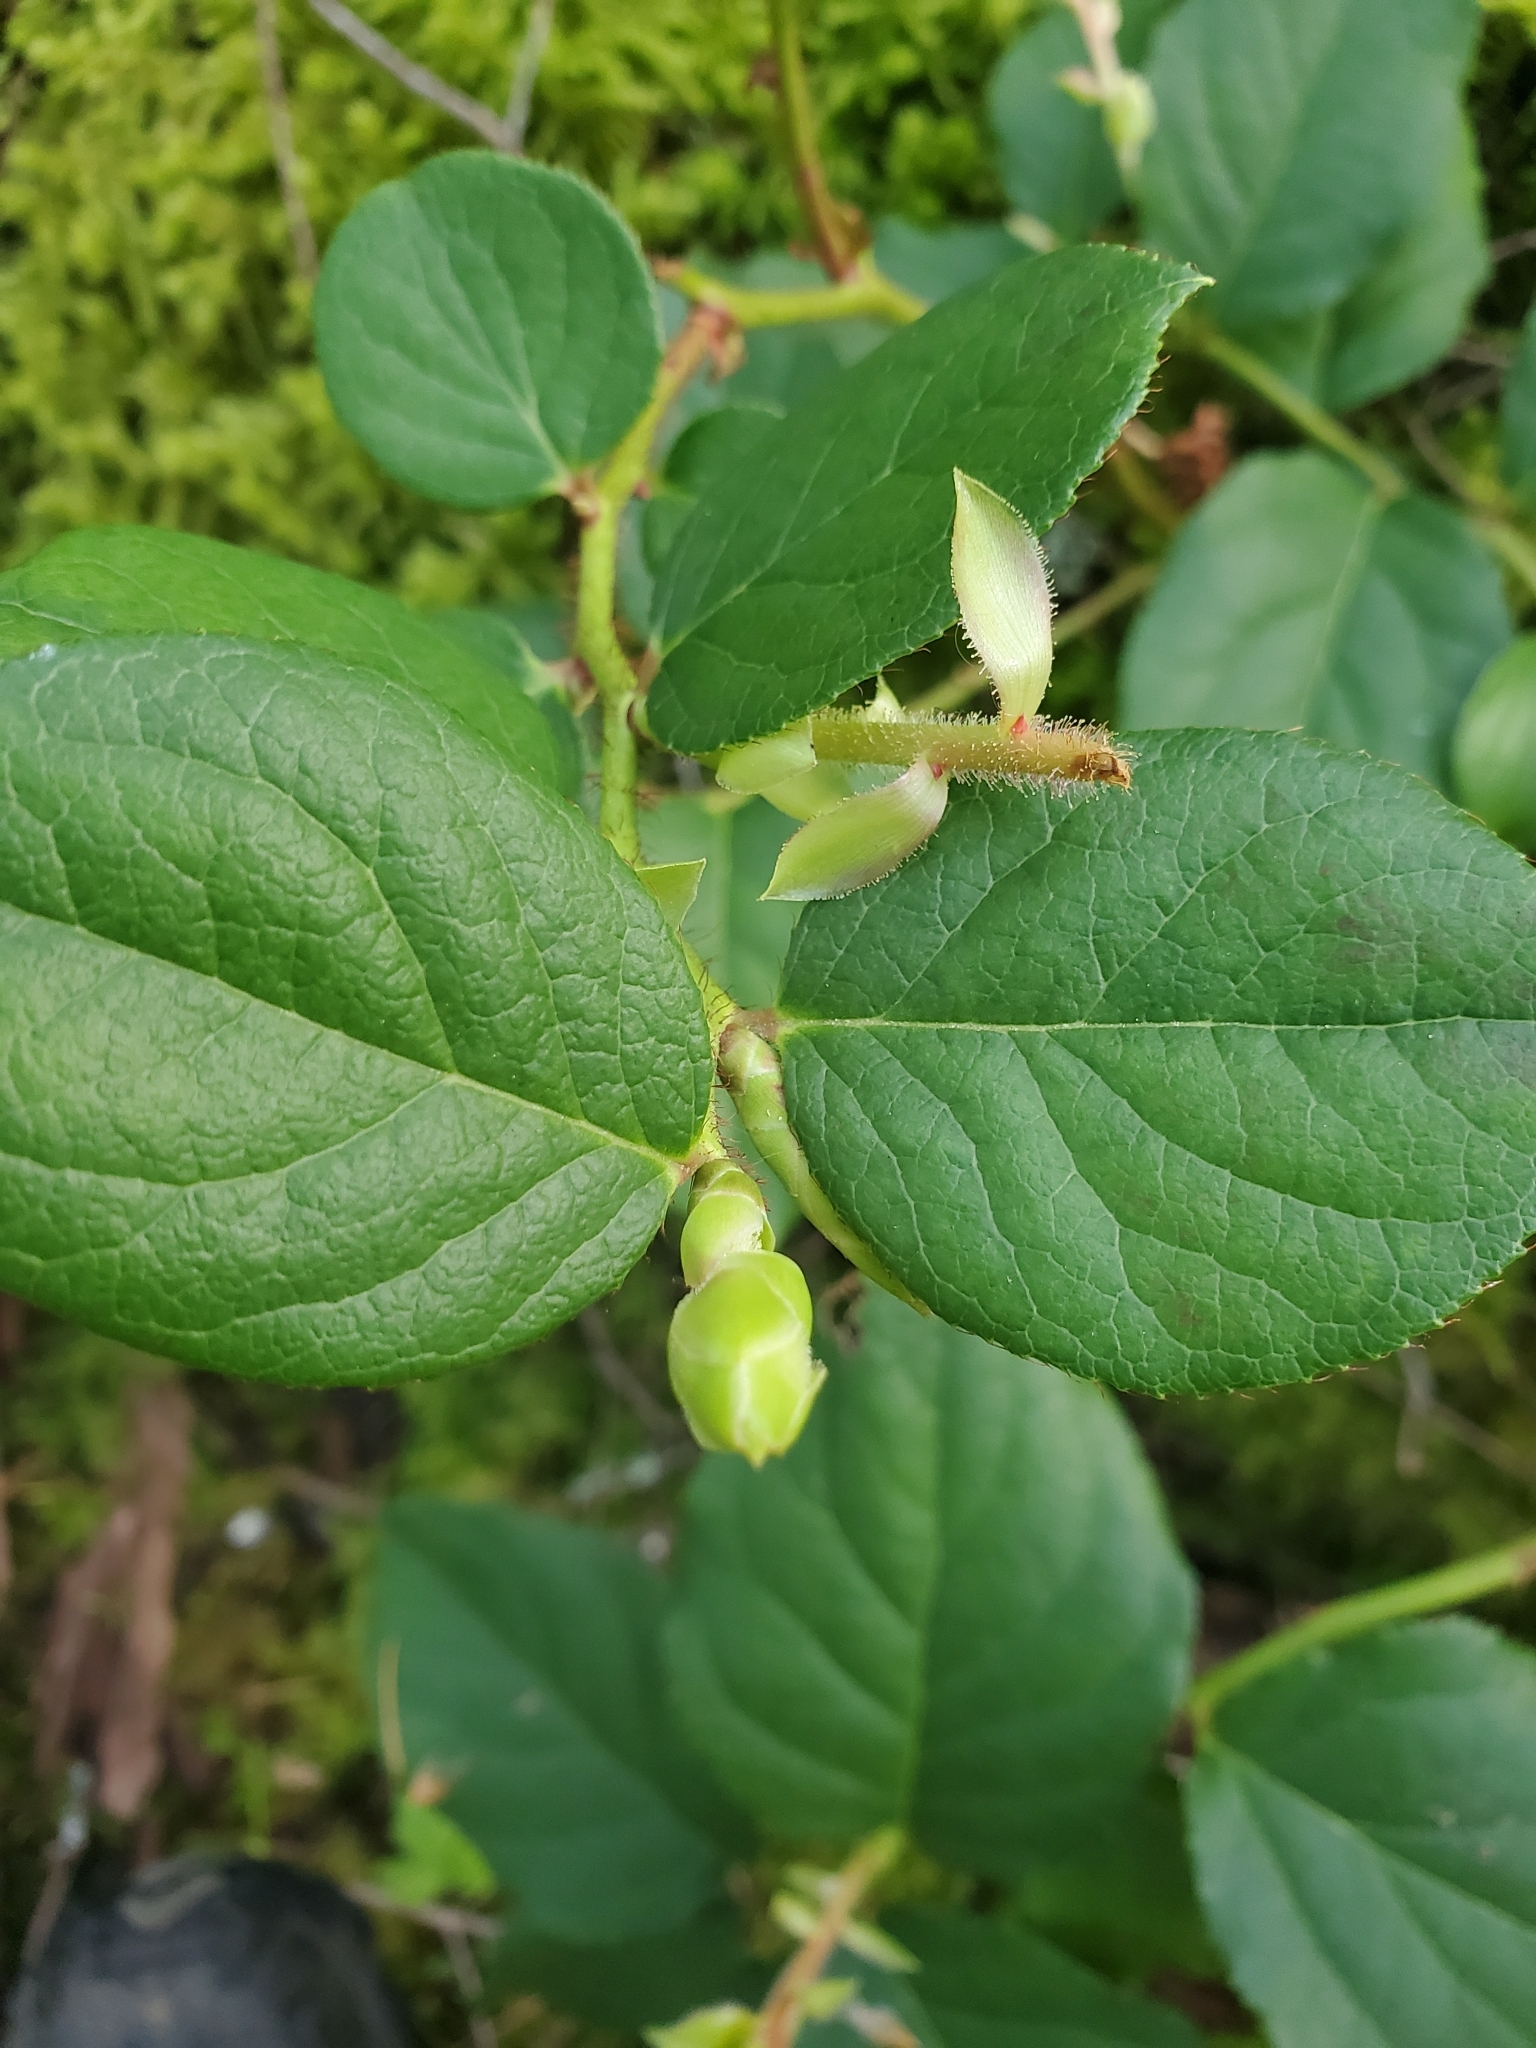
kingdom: Plantae
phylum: Tracheophyta
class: Magnoliopsida
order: Ericales
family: Ericaceae
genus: Gaultheria
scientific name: Gaultheria shallon
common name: Shallon
